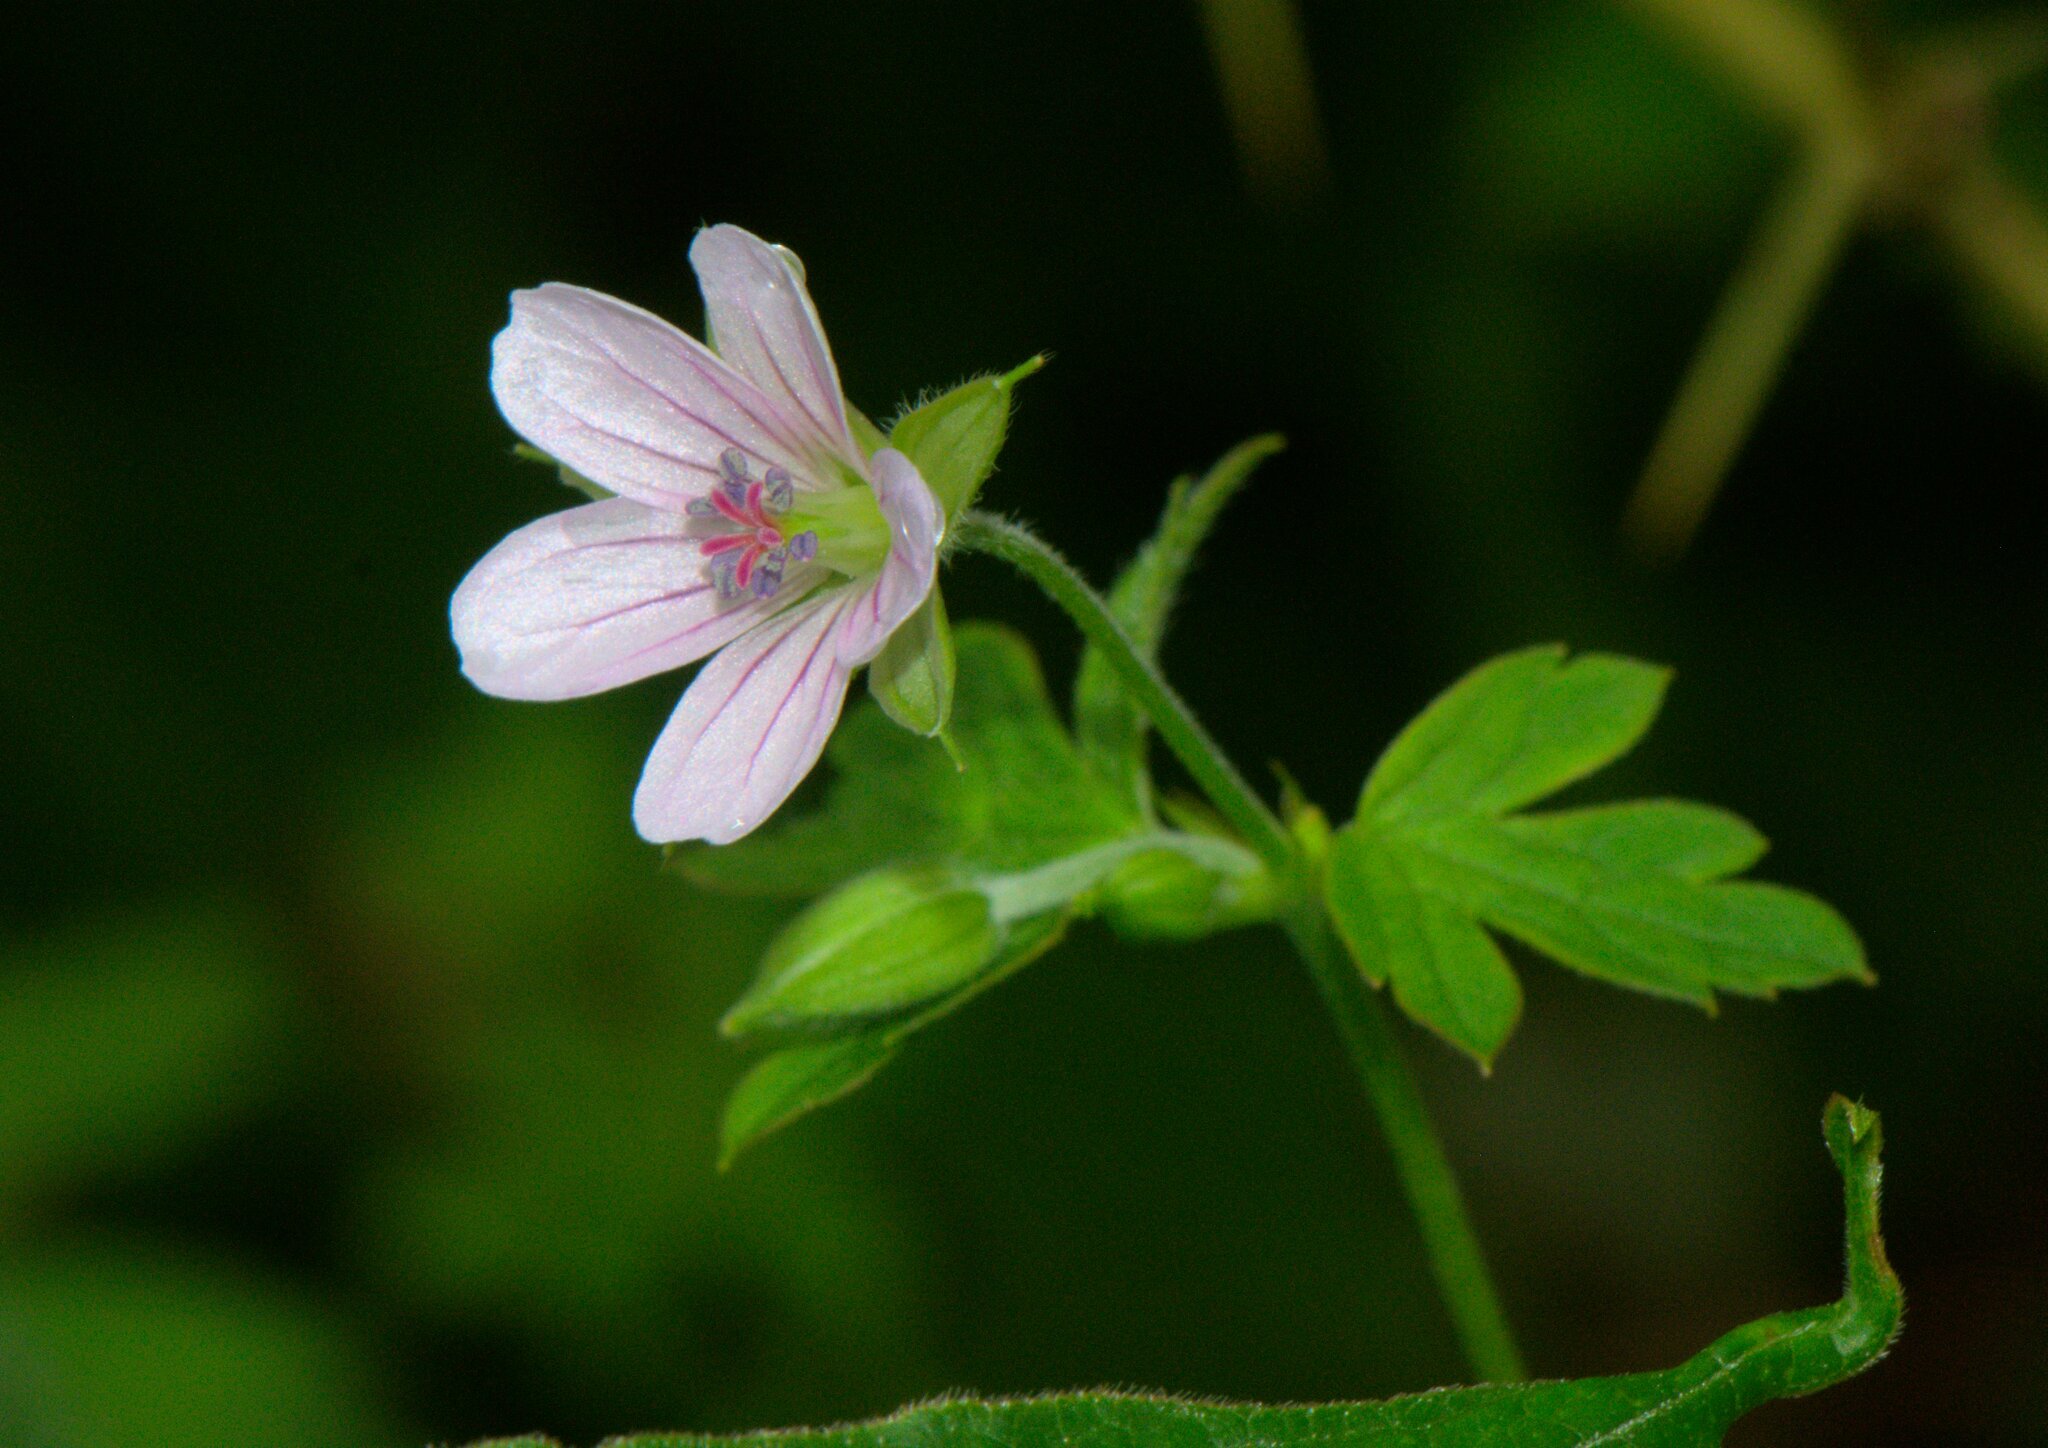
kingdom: Plantae
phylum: Tracheophyta
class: Magnoliopsida
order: Geraniales
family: Geraniaceae
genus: Geranium
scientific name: Geranium nepalense
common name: Nepalese crane's-bill
